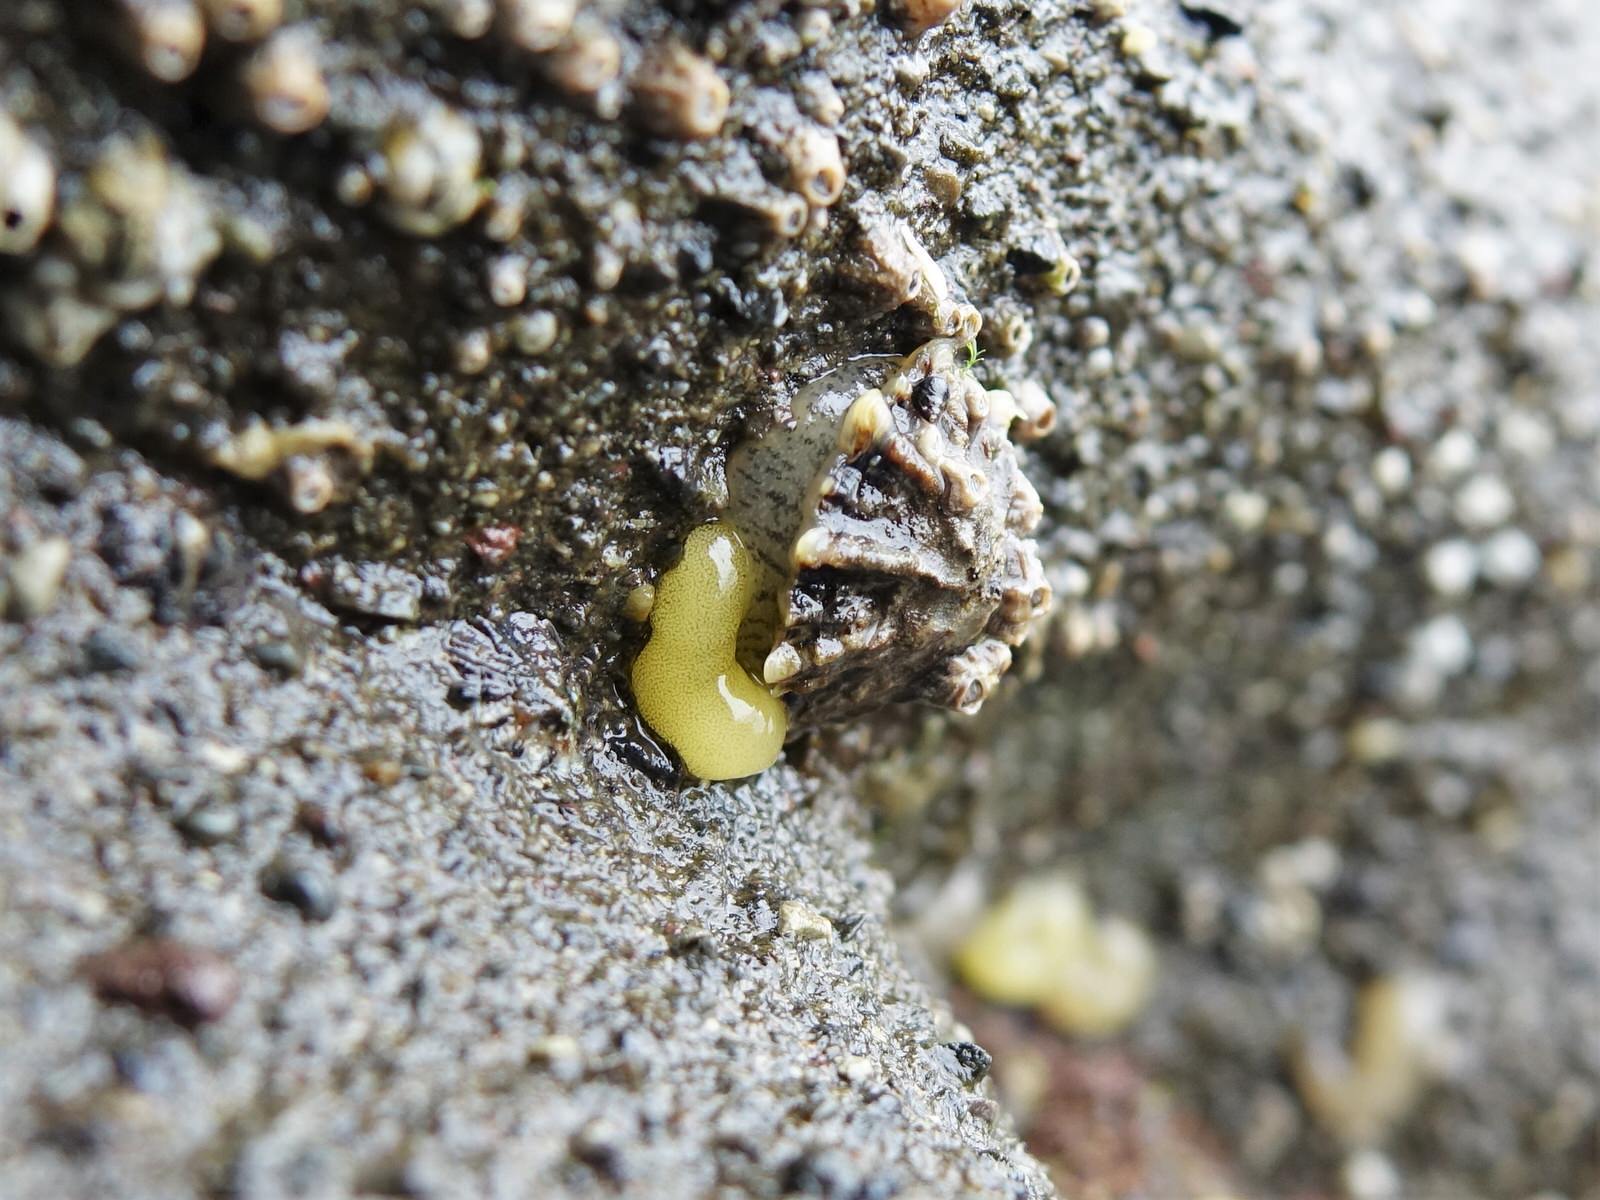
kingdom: Animalia
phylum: Mollusca
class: Gastropoda
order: Siphonariida
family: Siphonariidae
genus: Siphonaria
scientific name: Siphonaria australis
